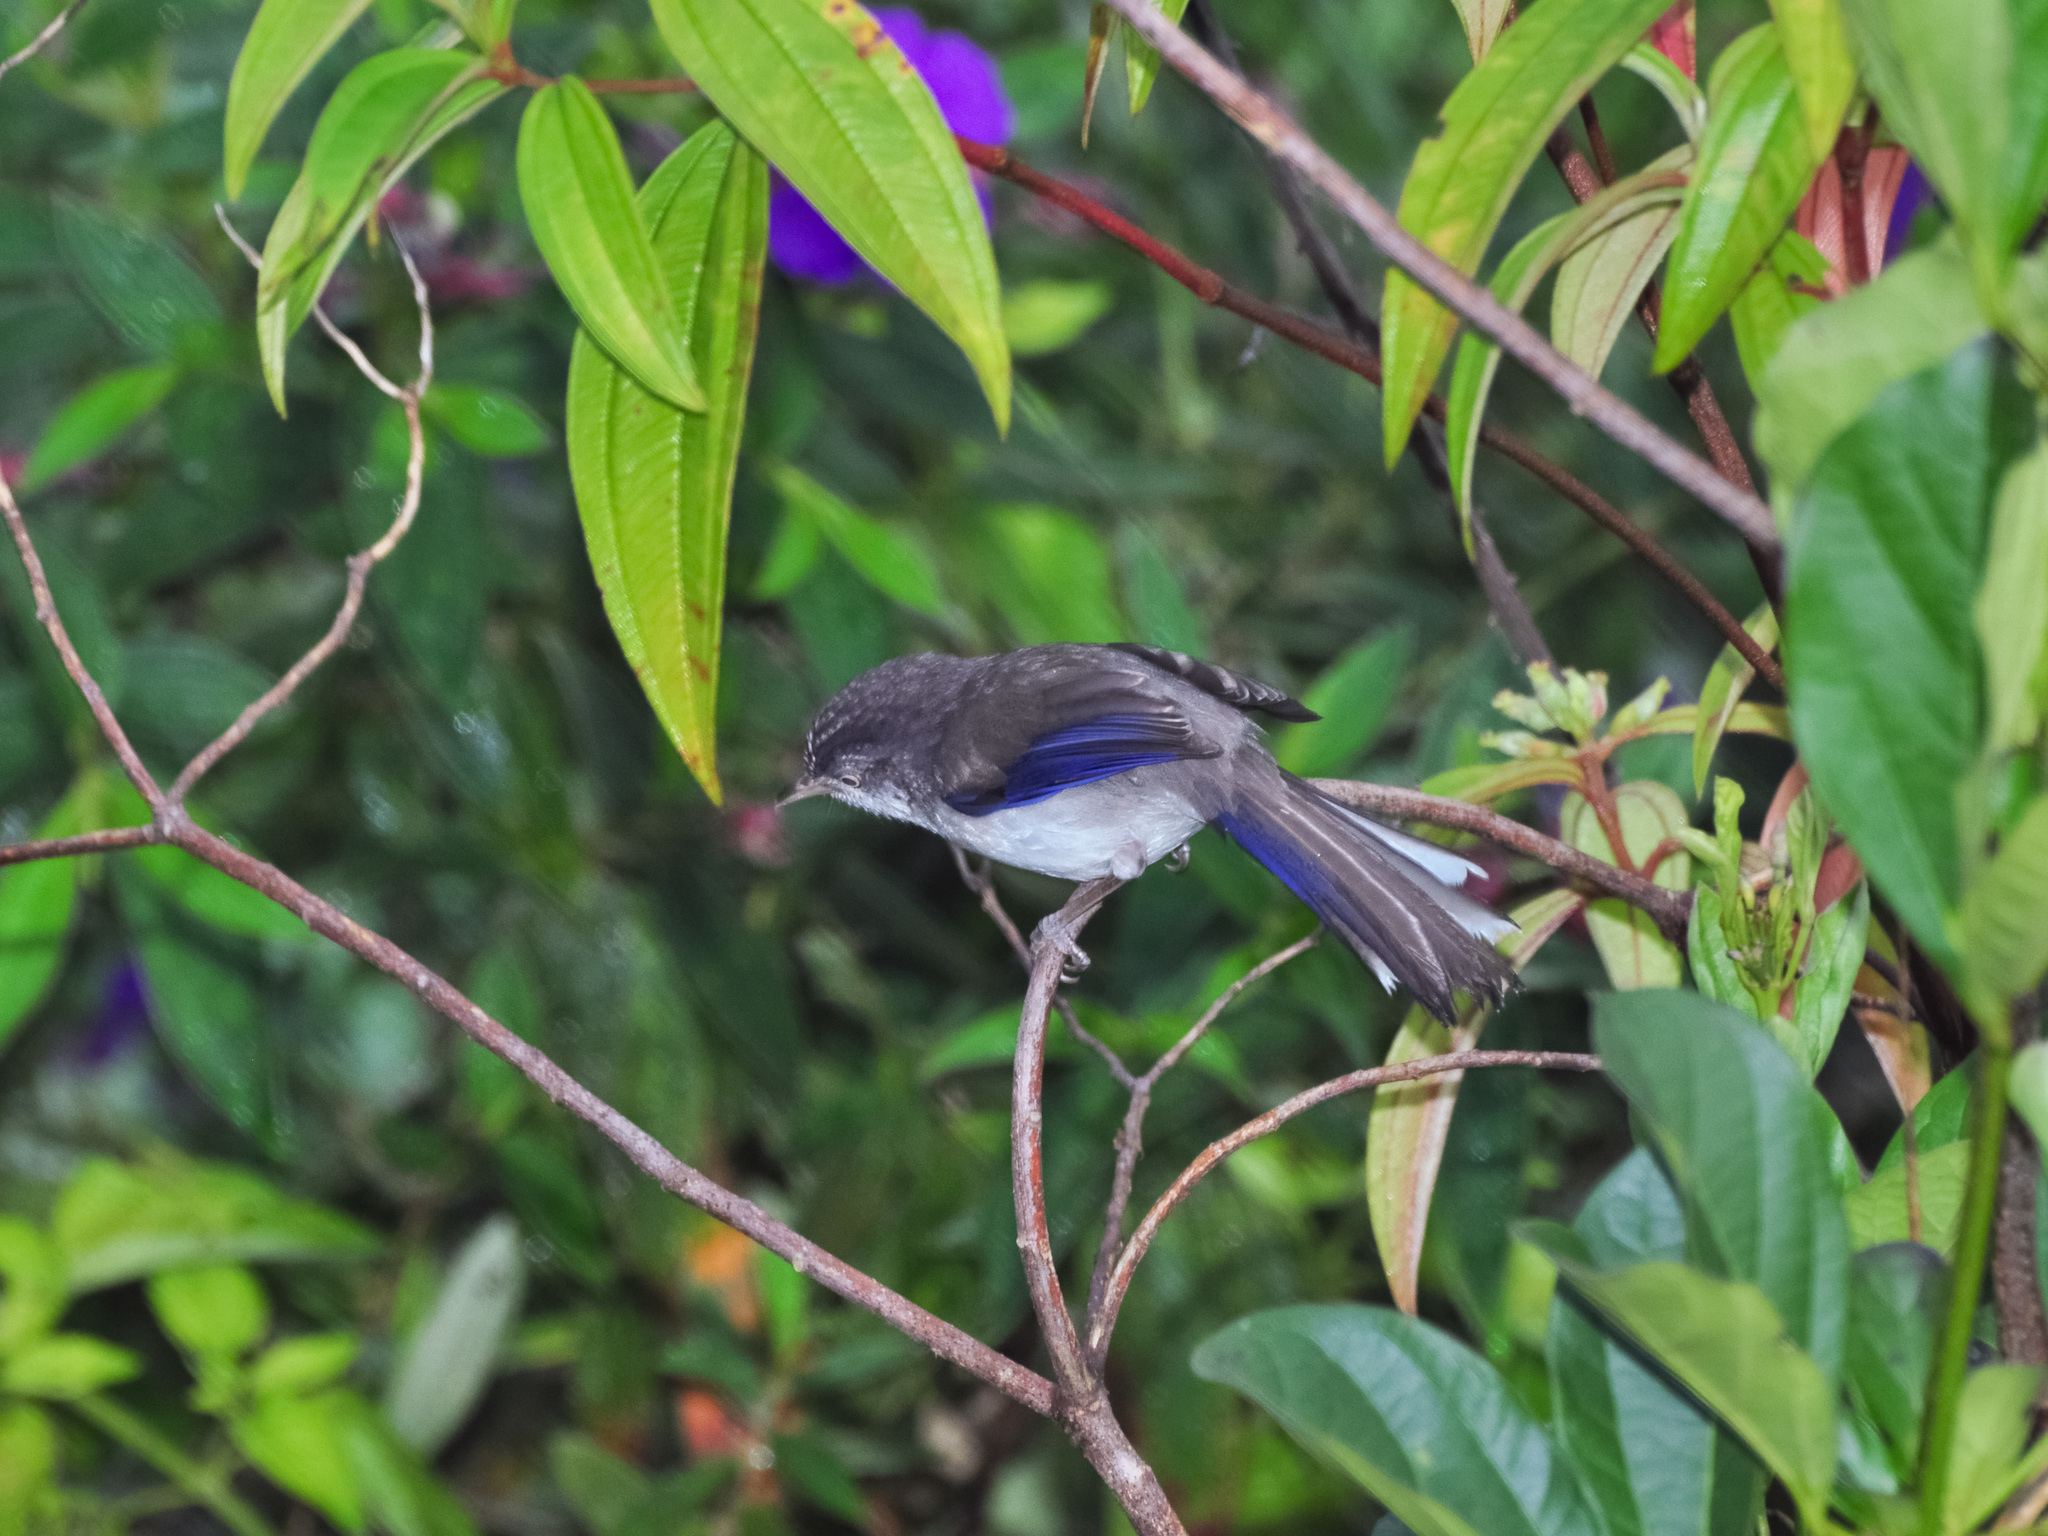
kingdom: Animalia
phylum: Chordata
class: Aves
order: Passeriformes
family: Leiothrichidae
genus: Minla
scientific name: Minla cyanouroptera
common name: Blue-winged minla
